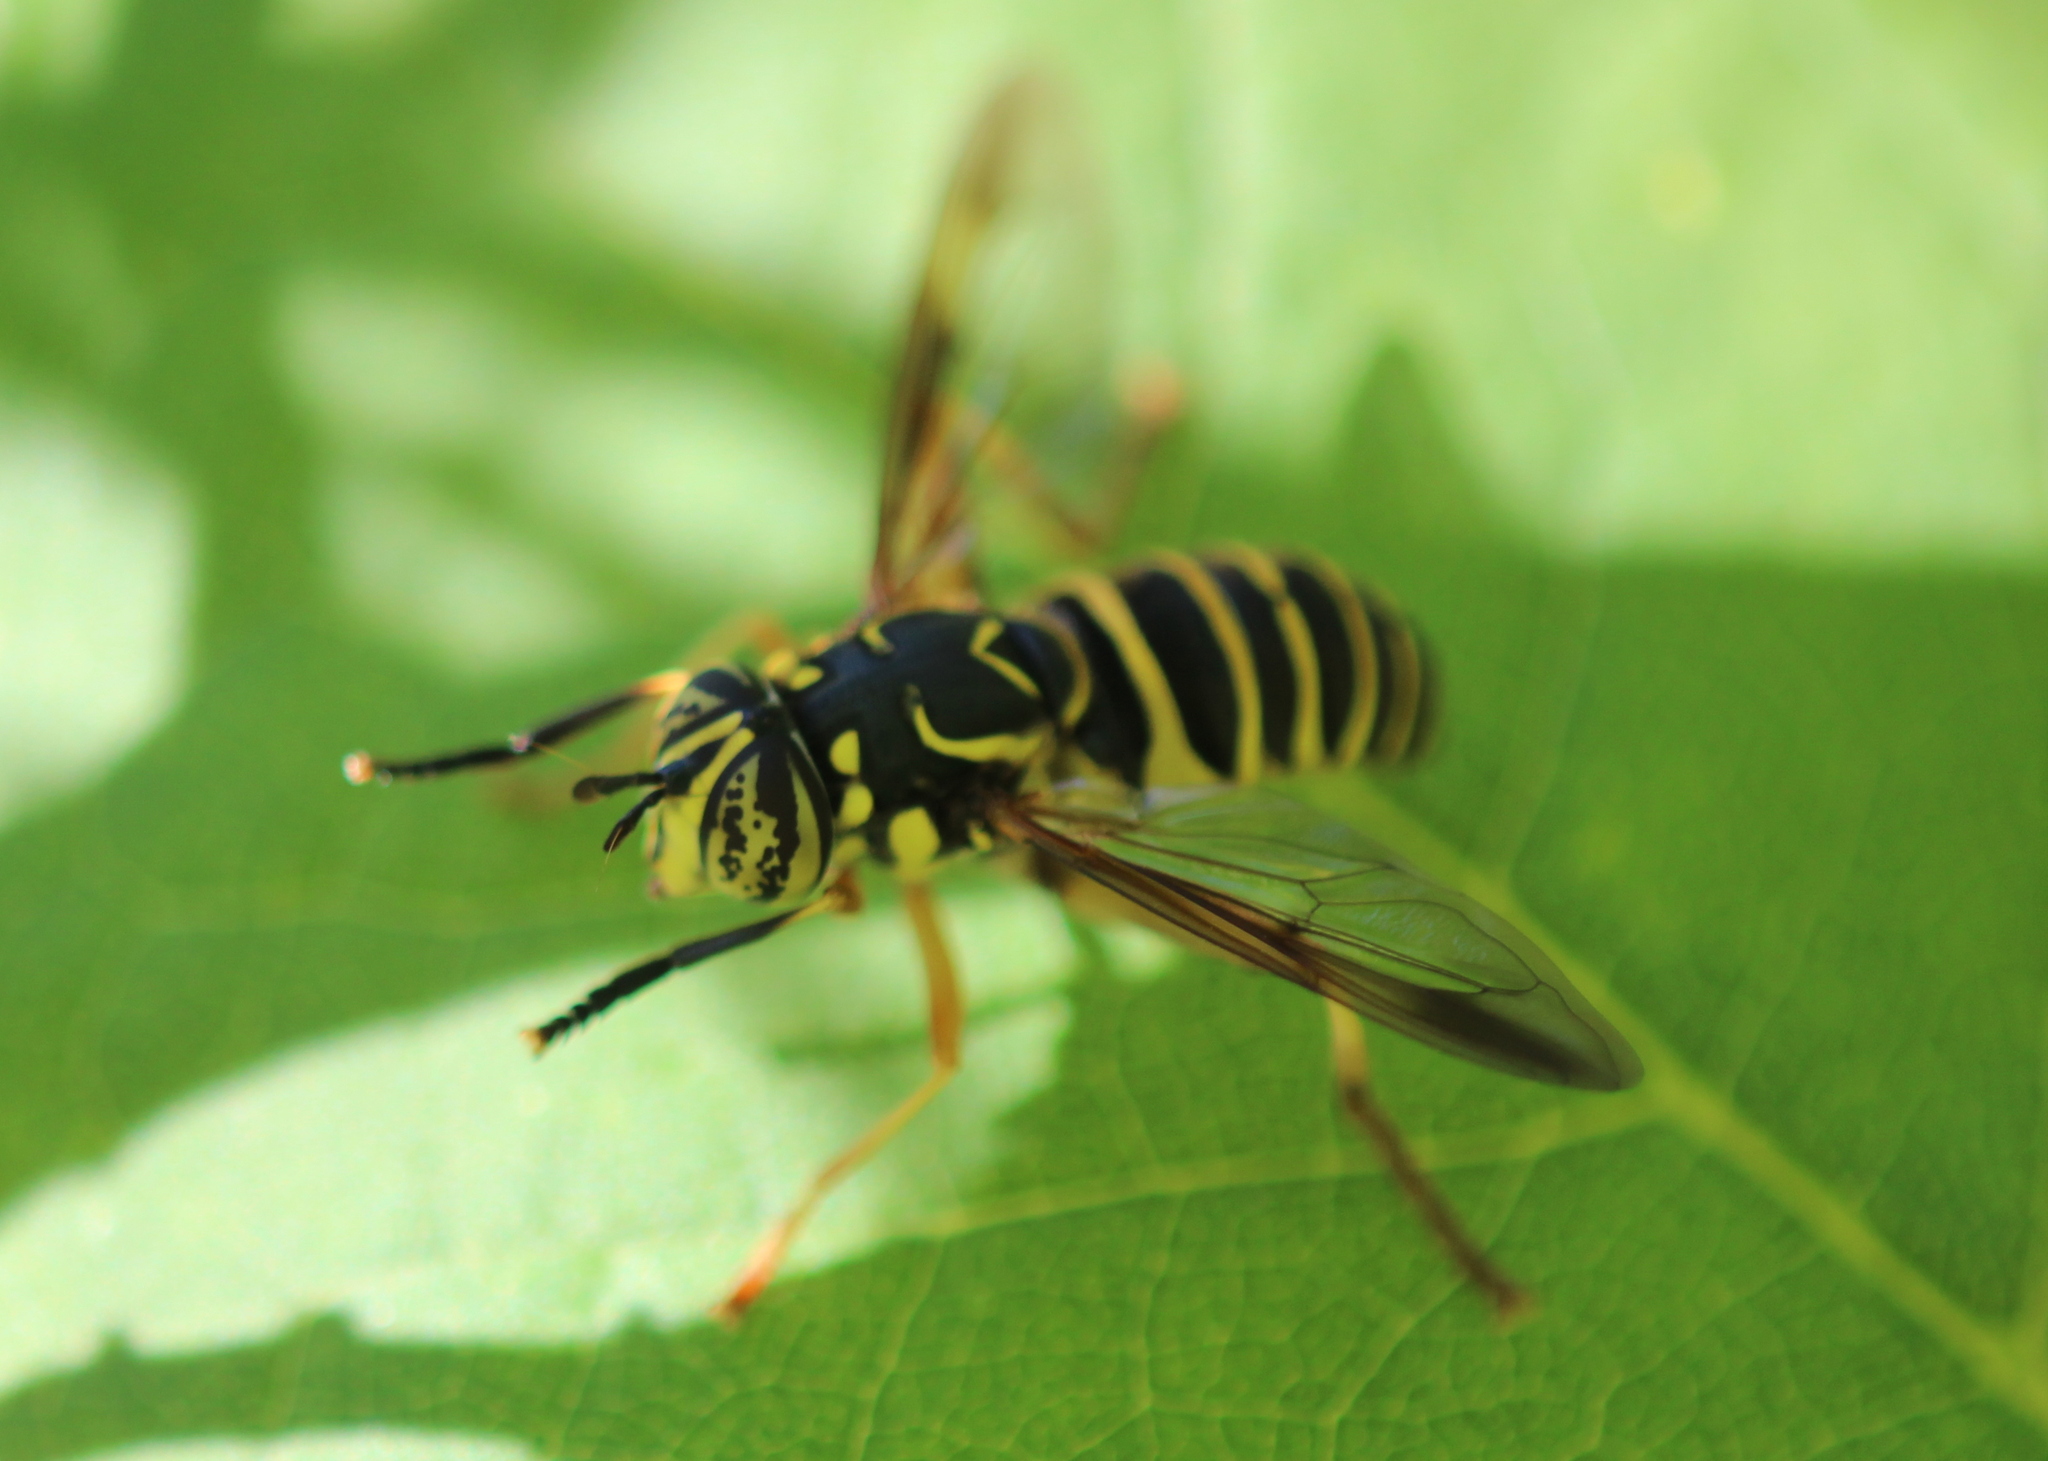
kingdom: Animalia
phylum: Arthropoda
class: Insecta
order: Diptera
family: Syrphidae
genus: Spilomyia
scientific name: Spilomyia longicornis
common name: Eastern hornet fly
